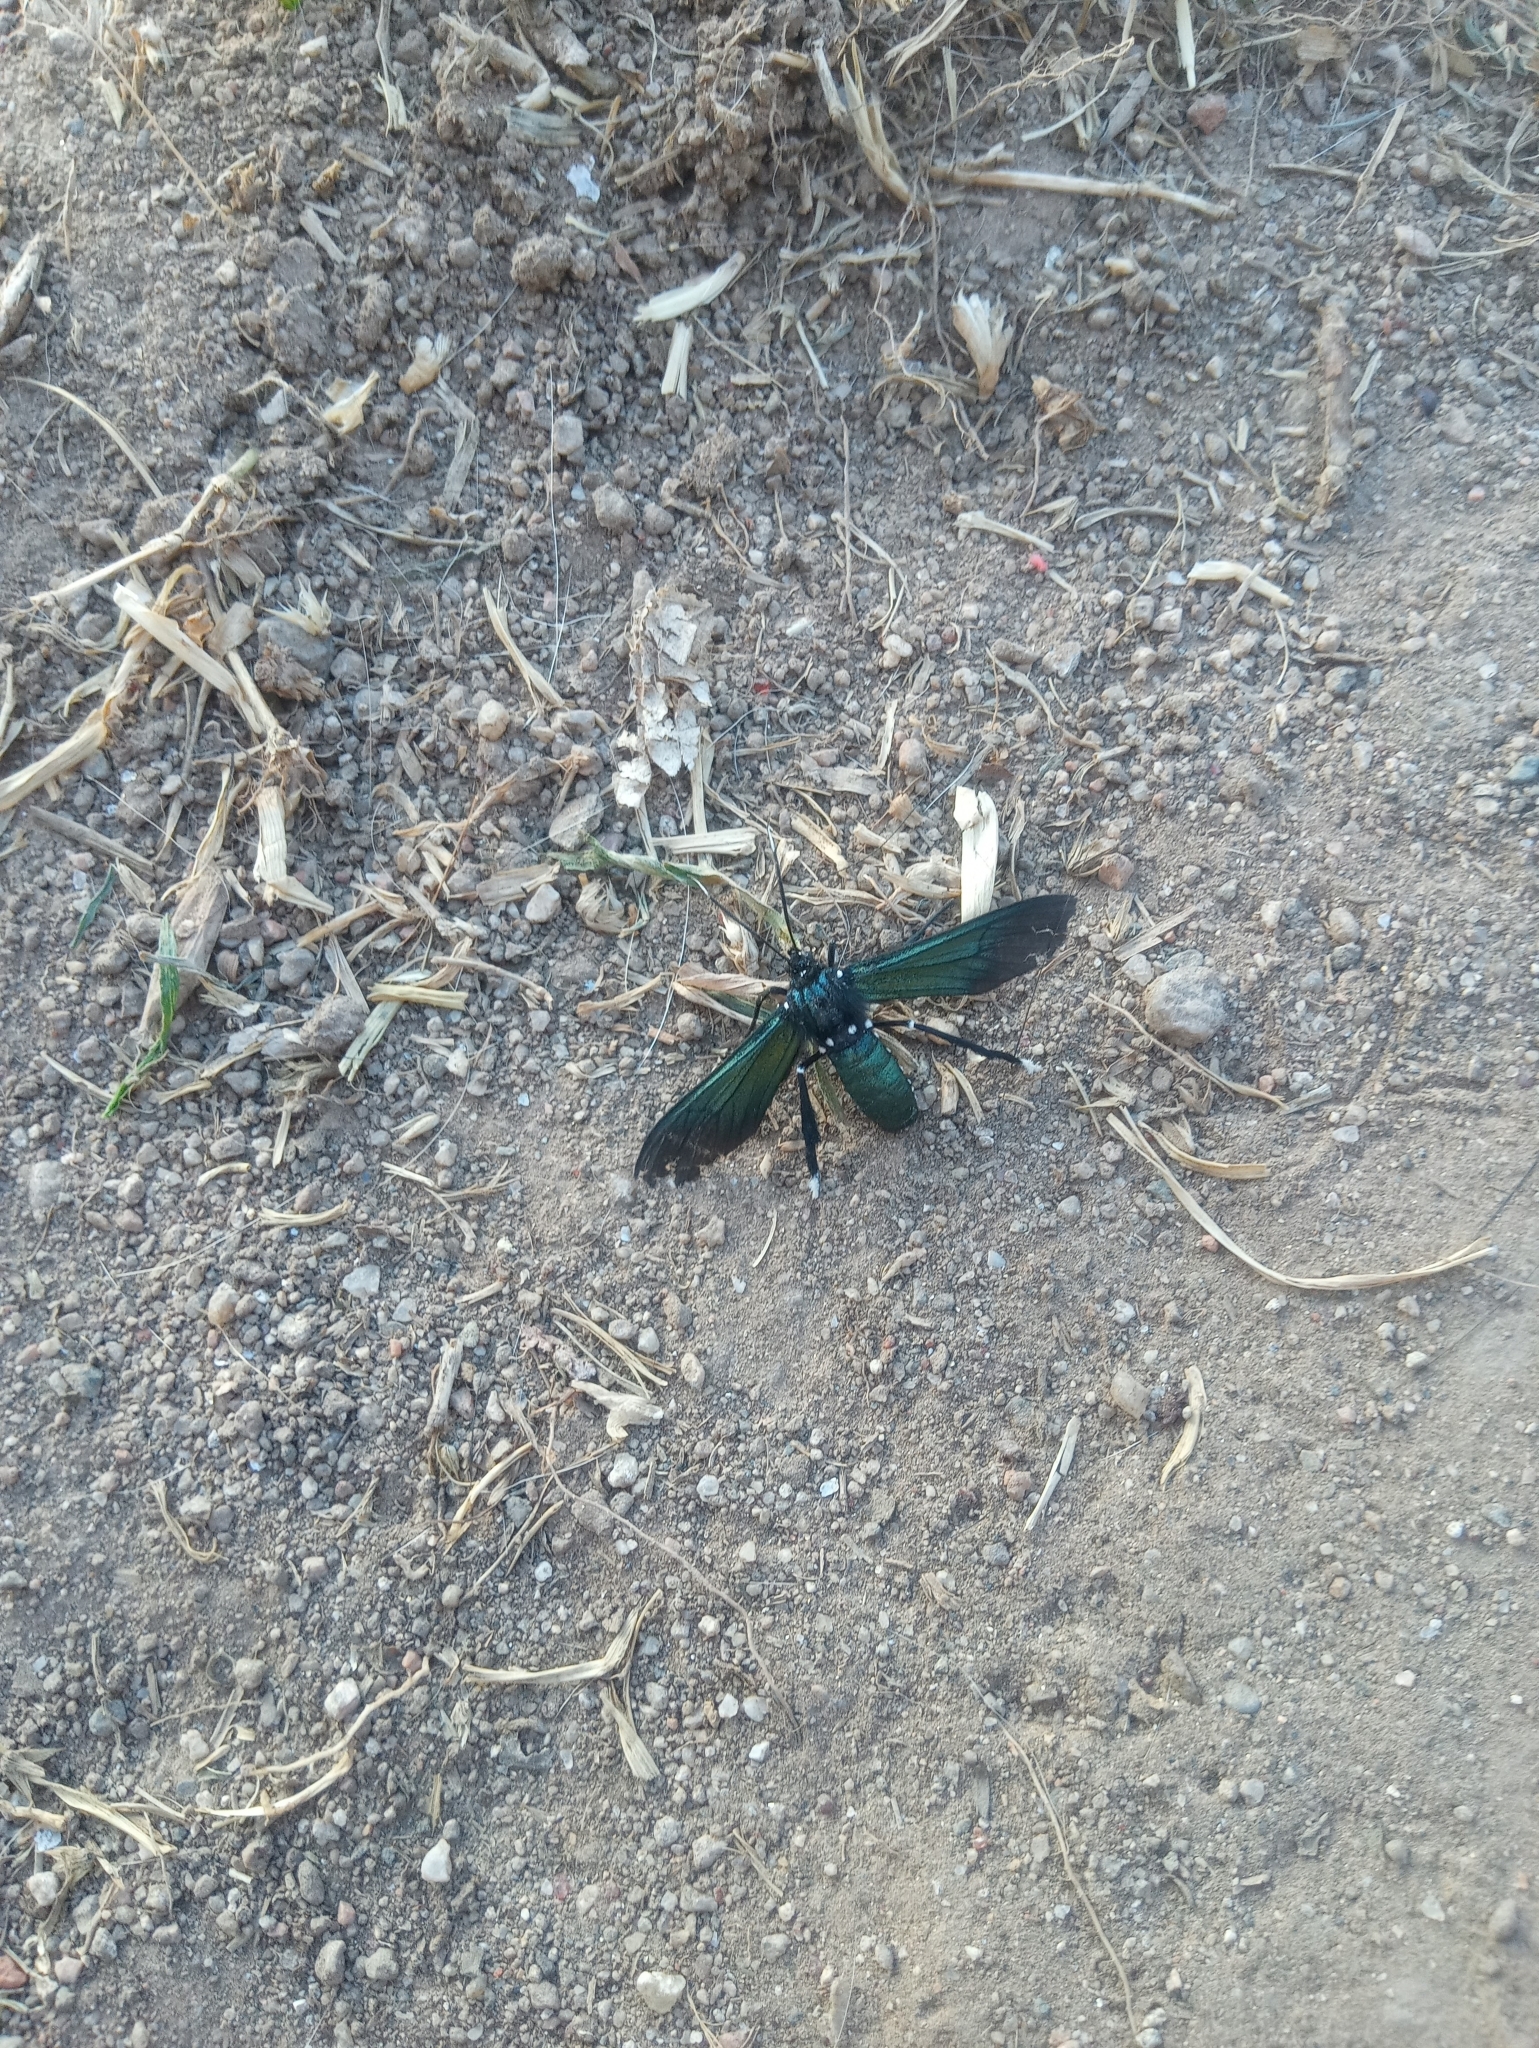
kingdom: Animalia
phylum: Arthropoda
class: Insecta
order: Lepidoptera
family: Erebidae
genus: Macrocneme
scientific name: Macrocneme leucostigma
